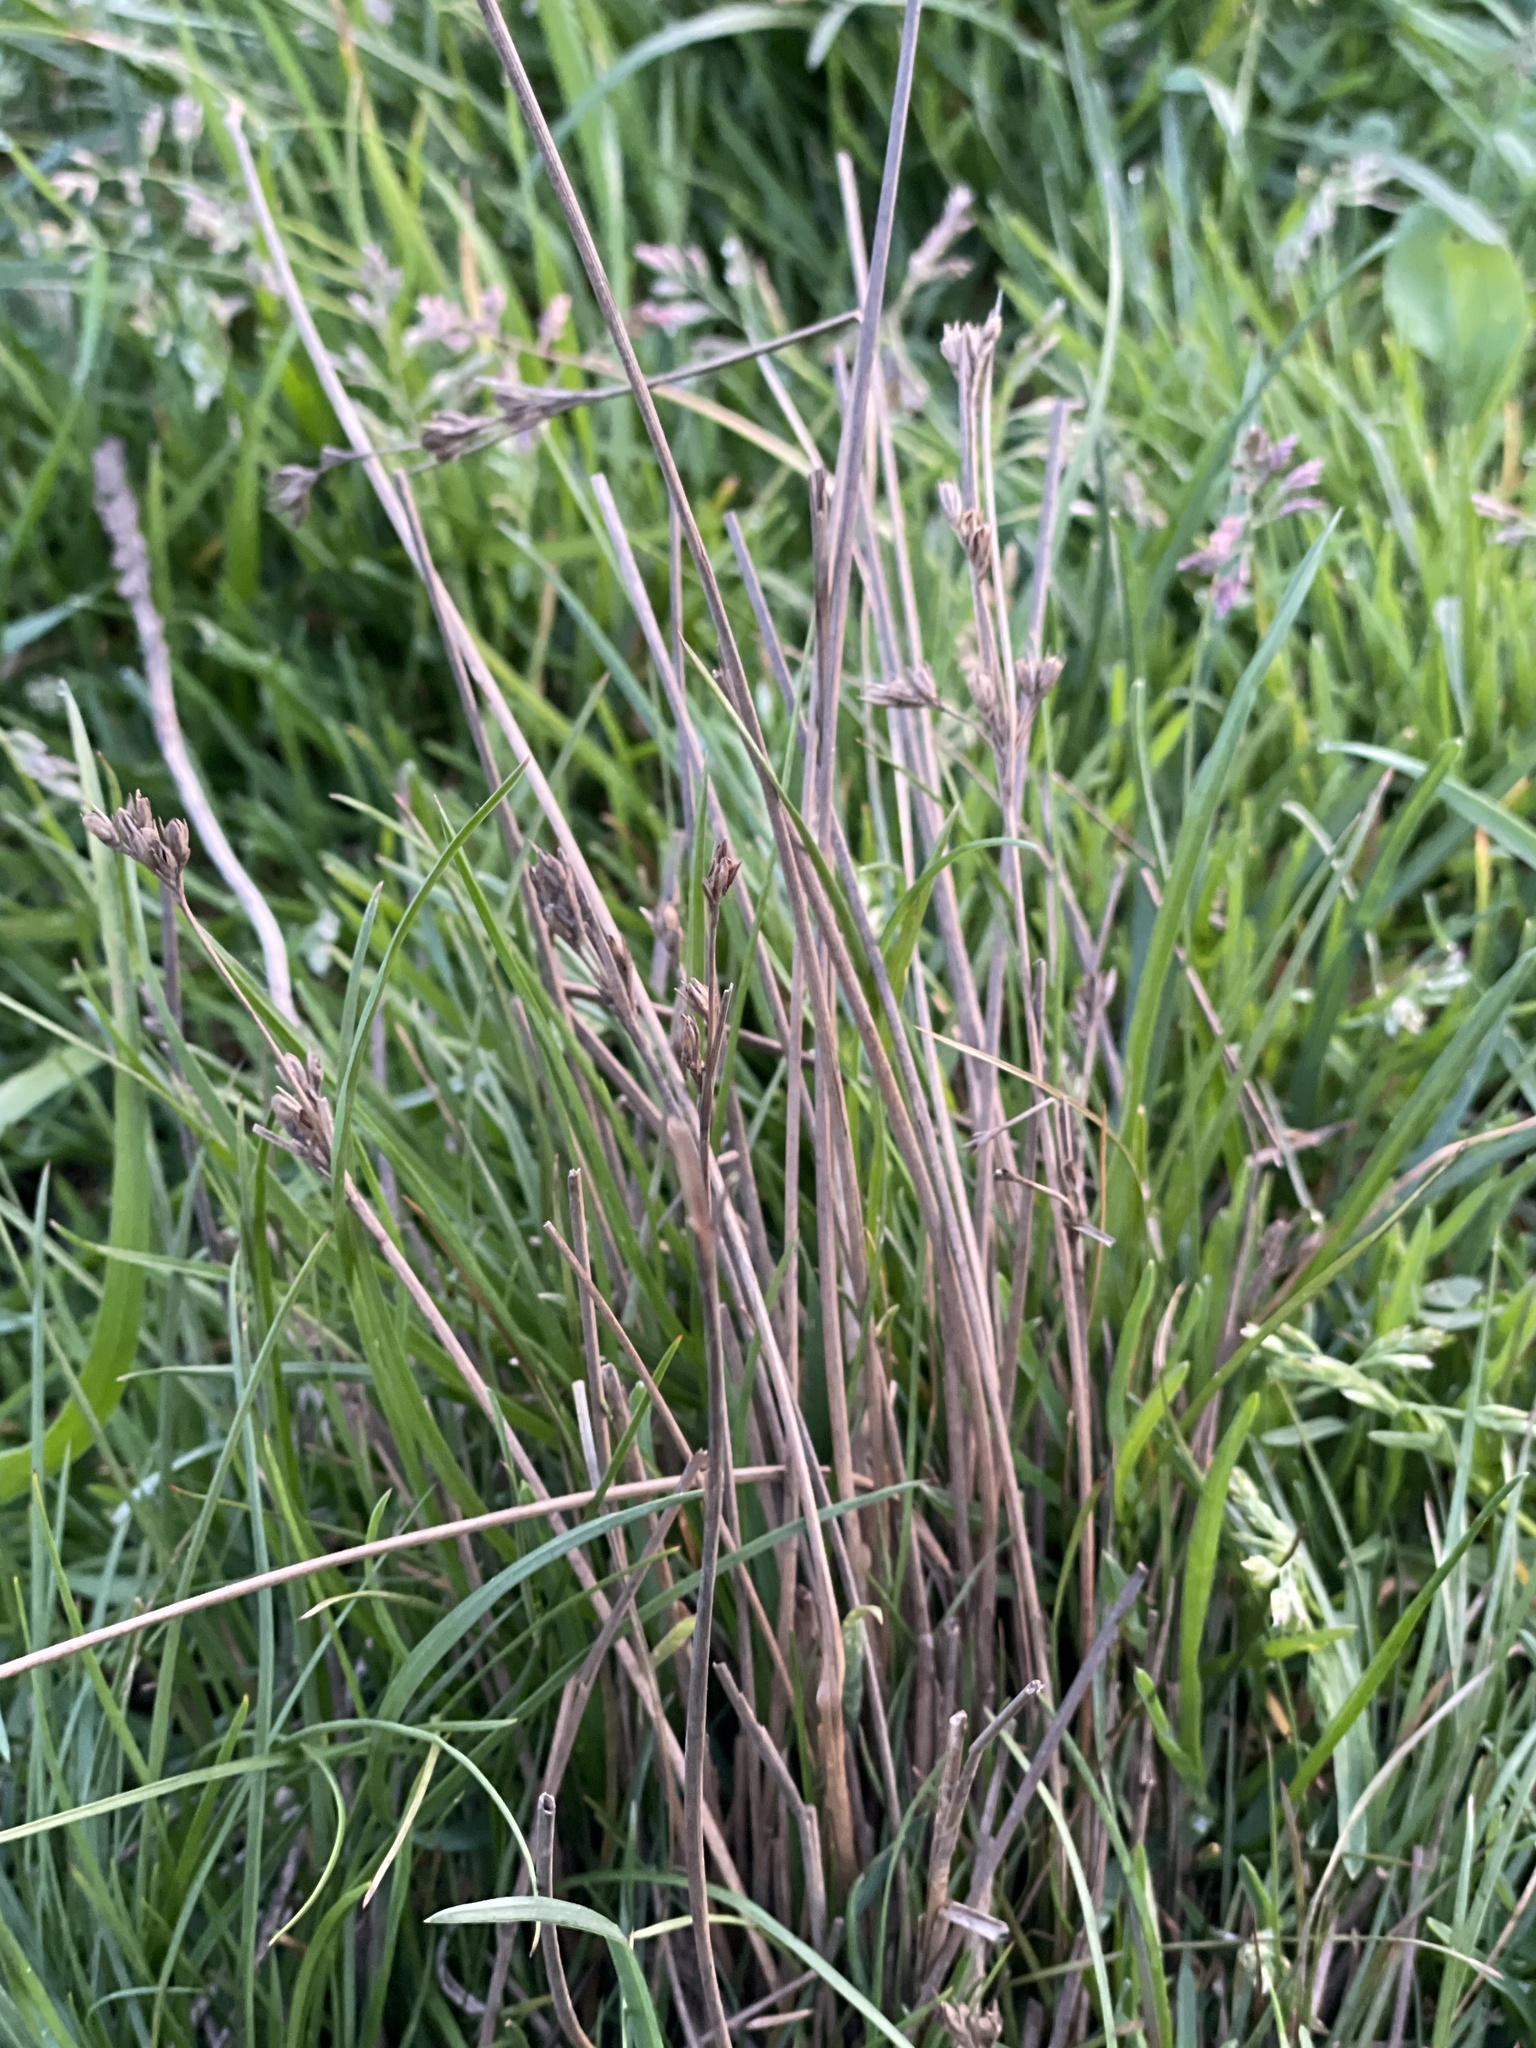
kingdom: Plantae
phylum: Tracheophyta
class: Liliopsida
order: Poales
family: Juncaceae
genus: Juncus
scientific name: Juncus tenuis
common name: Slender rush
